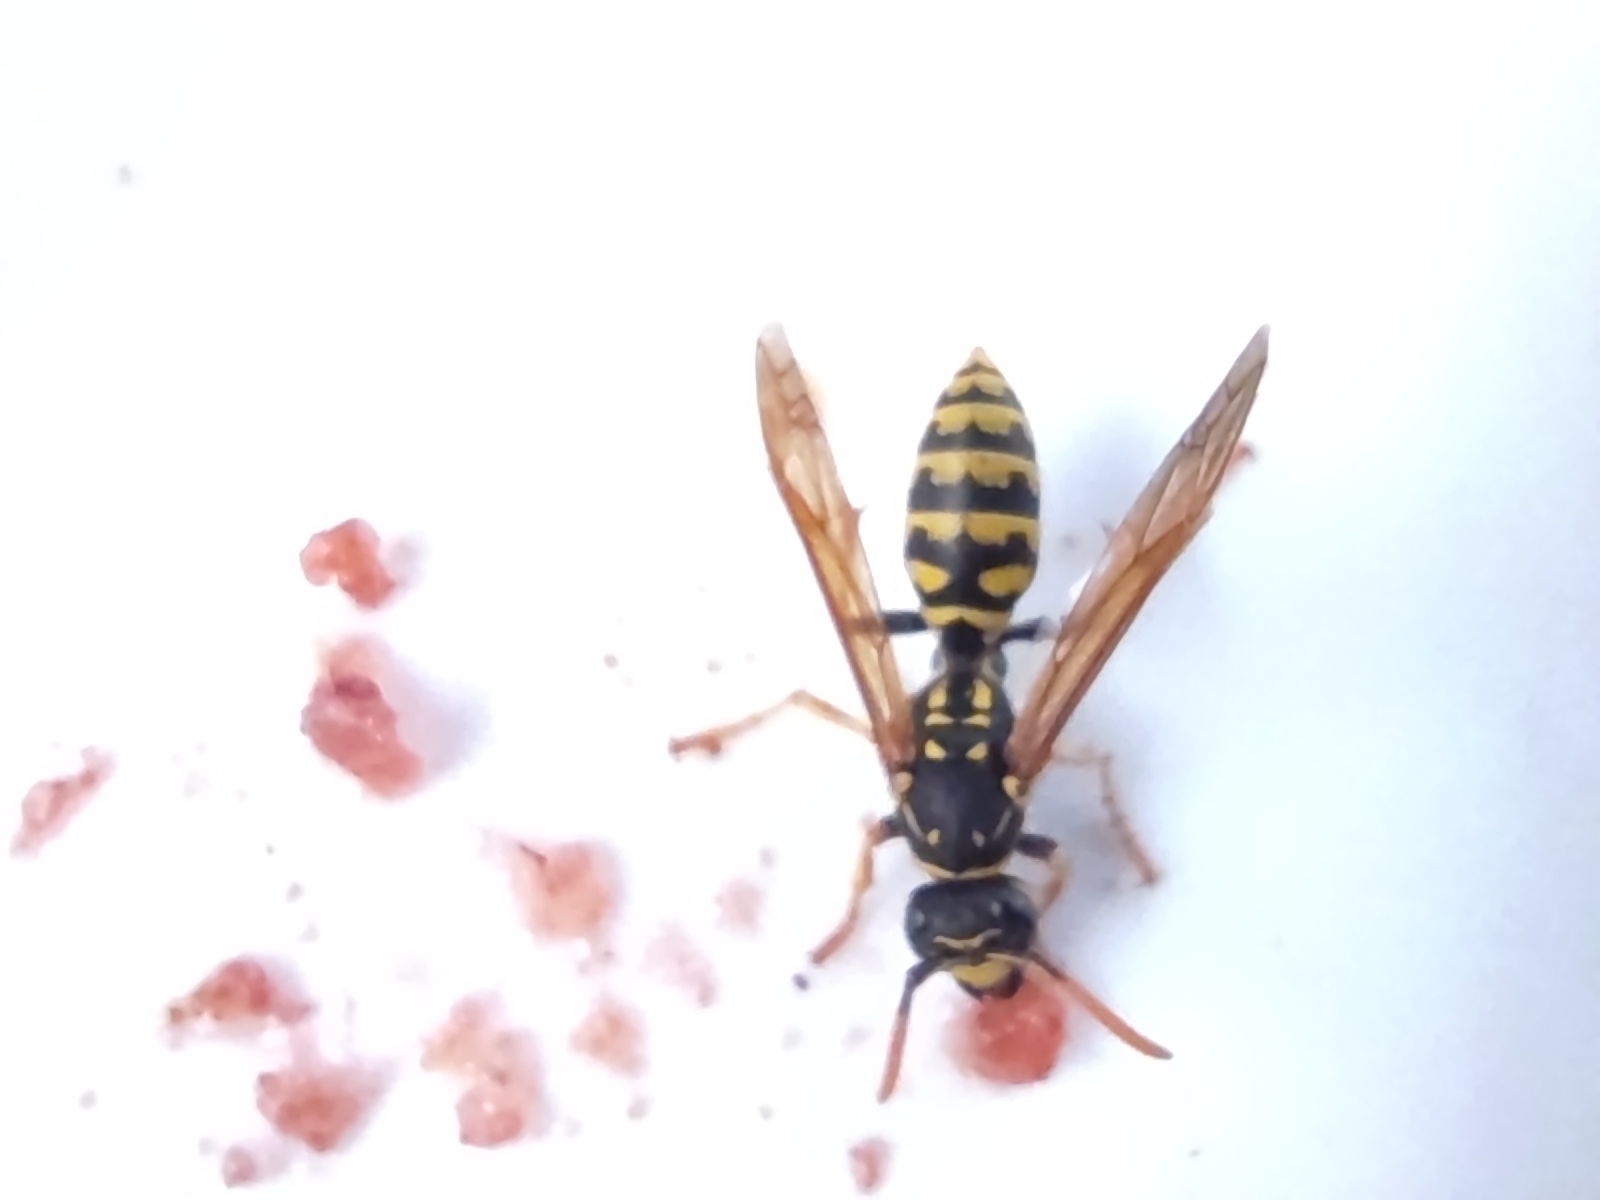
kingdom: Animalia
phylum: Arthropoda
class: Insecta
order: Hymenoptera
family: Eumenidae
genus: Polistes
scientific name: Polistes dominula
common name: Paper wasp
